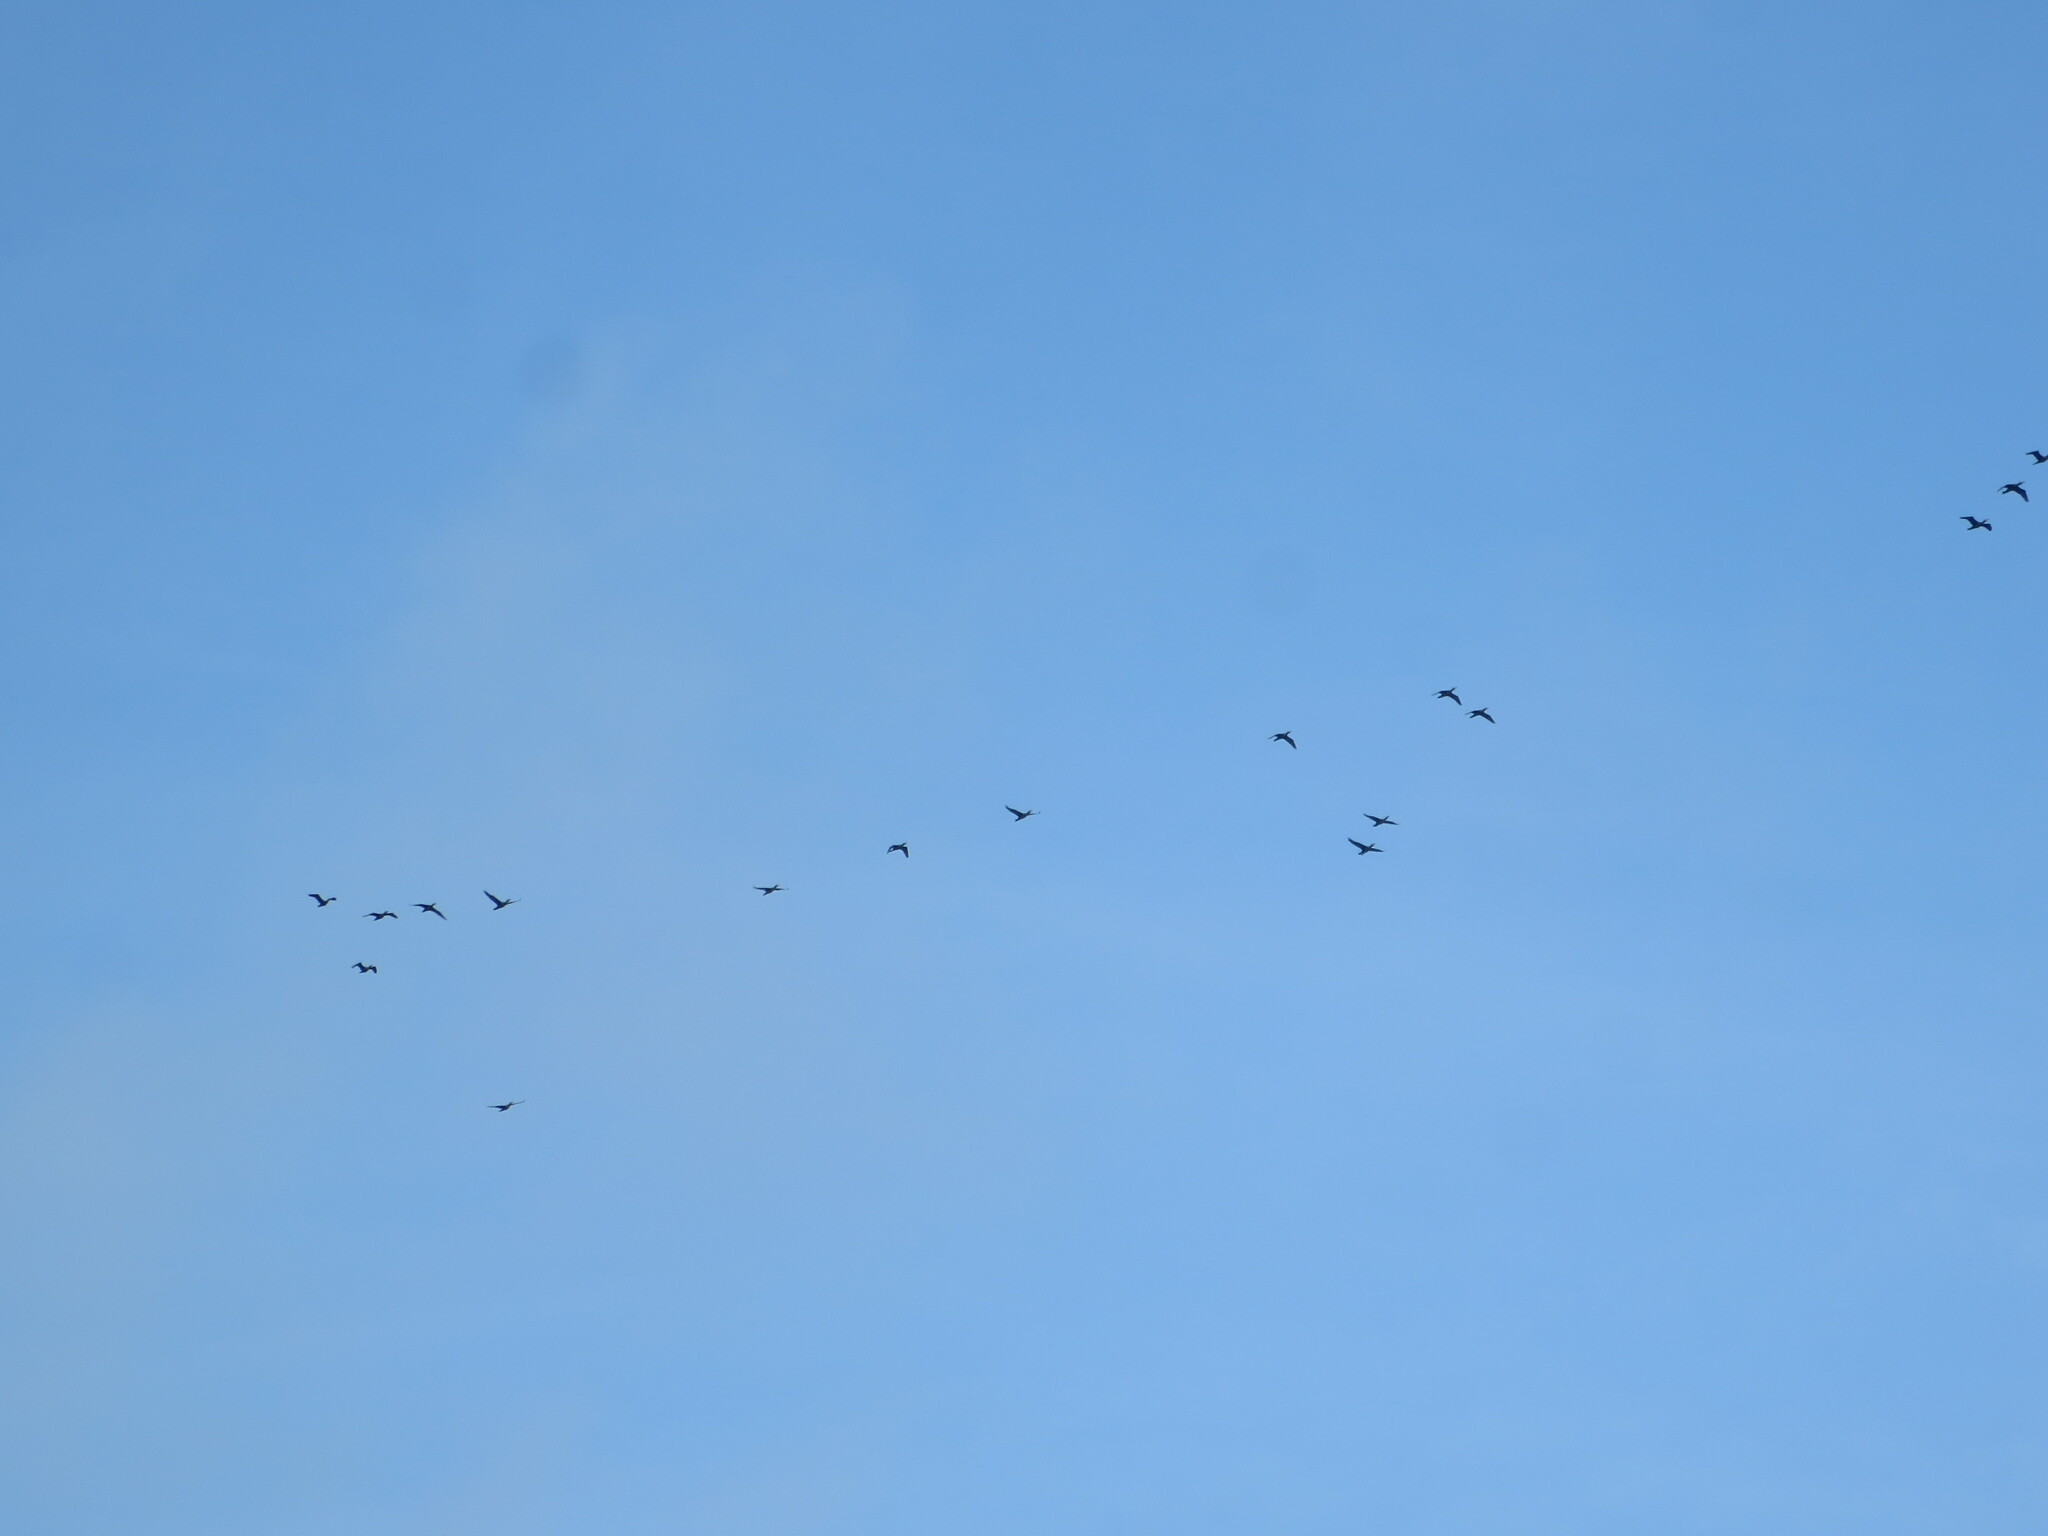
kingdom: Animalia
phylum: Chordata
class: Aves
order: Suliformes
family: Phalacrocoracidae
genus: Phalacrocorax
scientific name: Phalacrocorax auritus
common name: Double-crested cormorant
